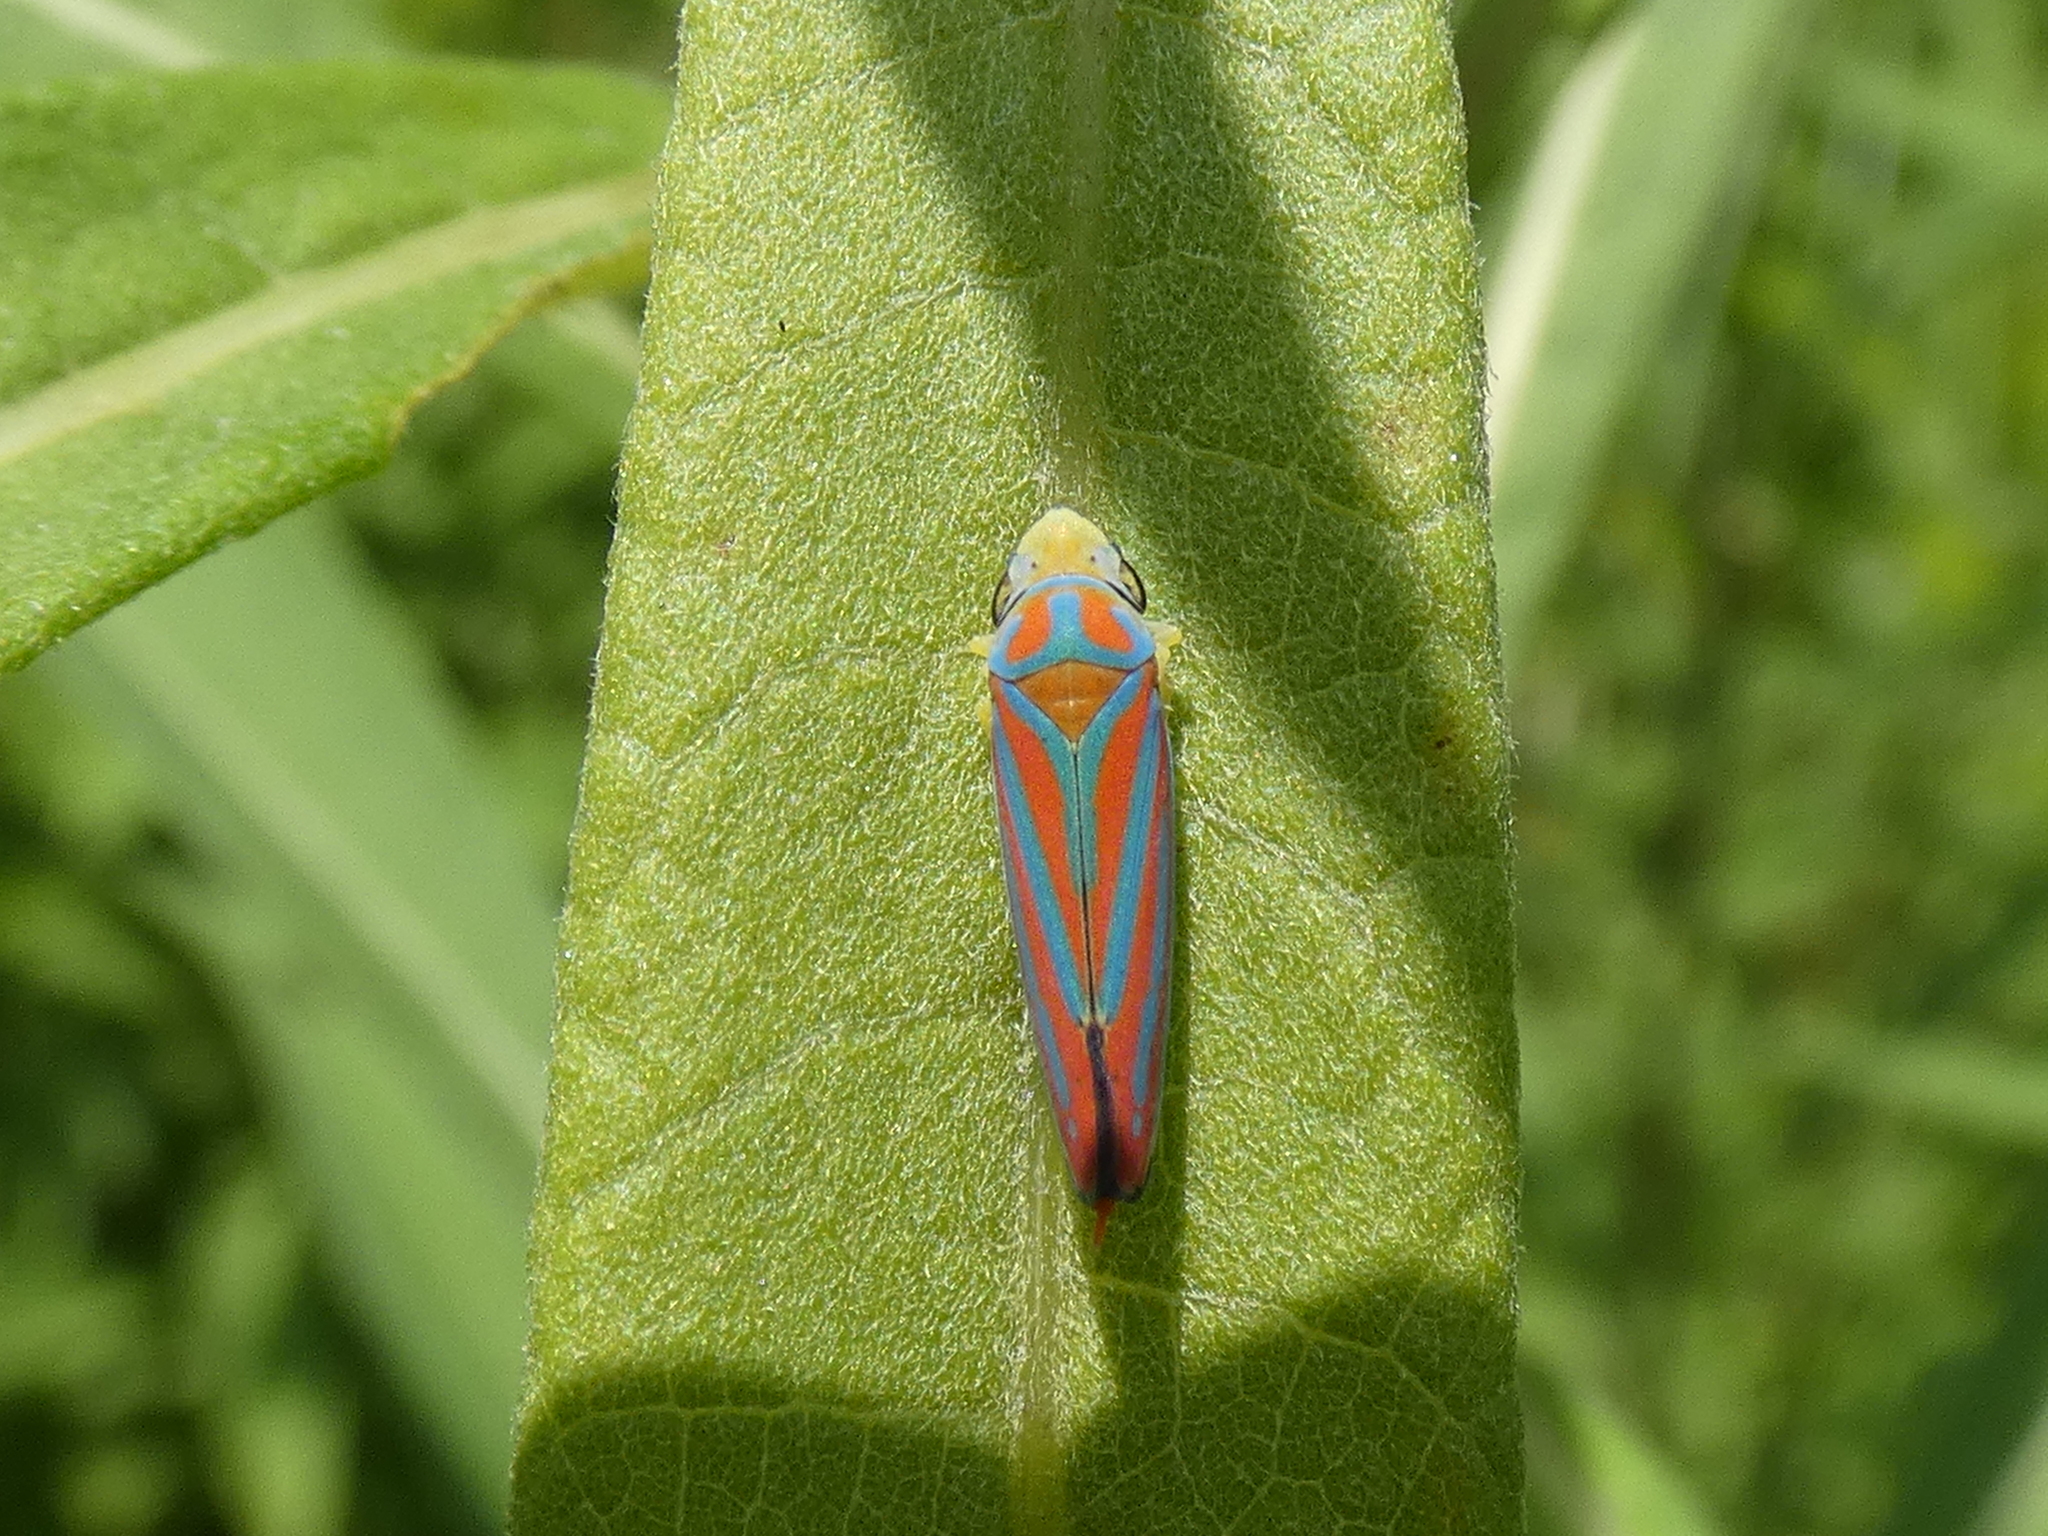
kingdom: Animalia
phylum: Arthropoda
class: Insecta
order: Hemiptera
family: Cicadellidae
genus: Graphocephala
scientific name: Graphocephala coccinea
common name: Candy-striped leafhopper
